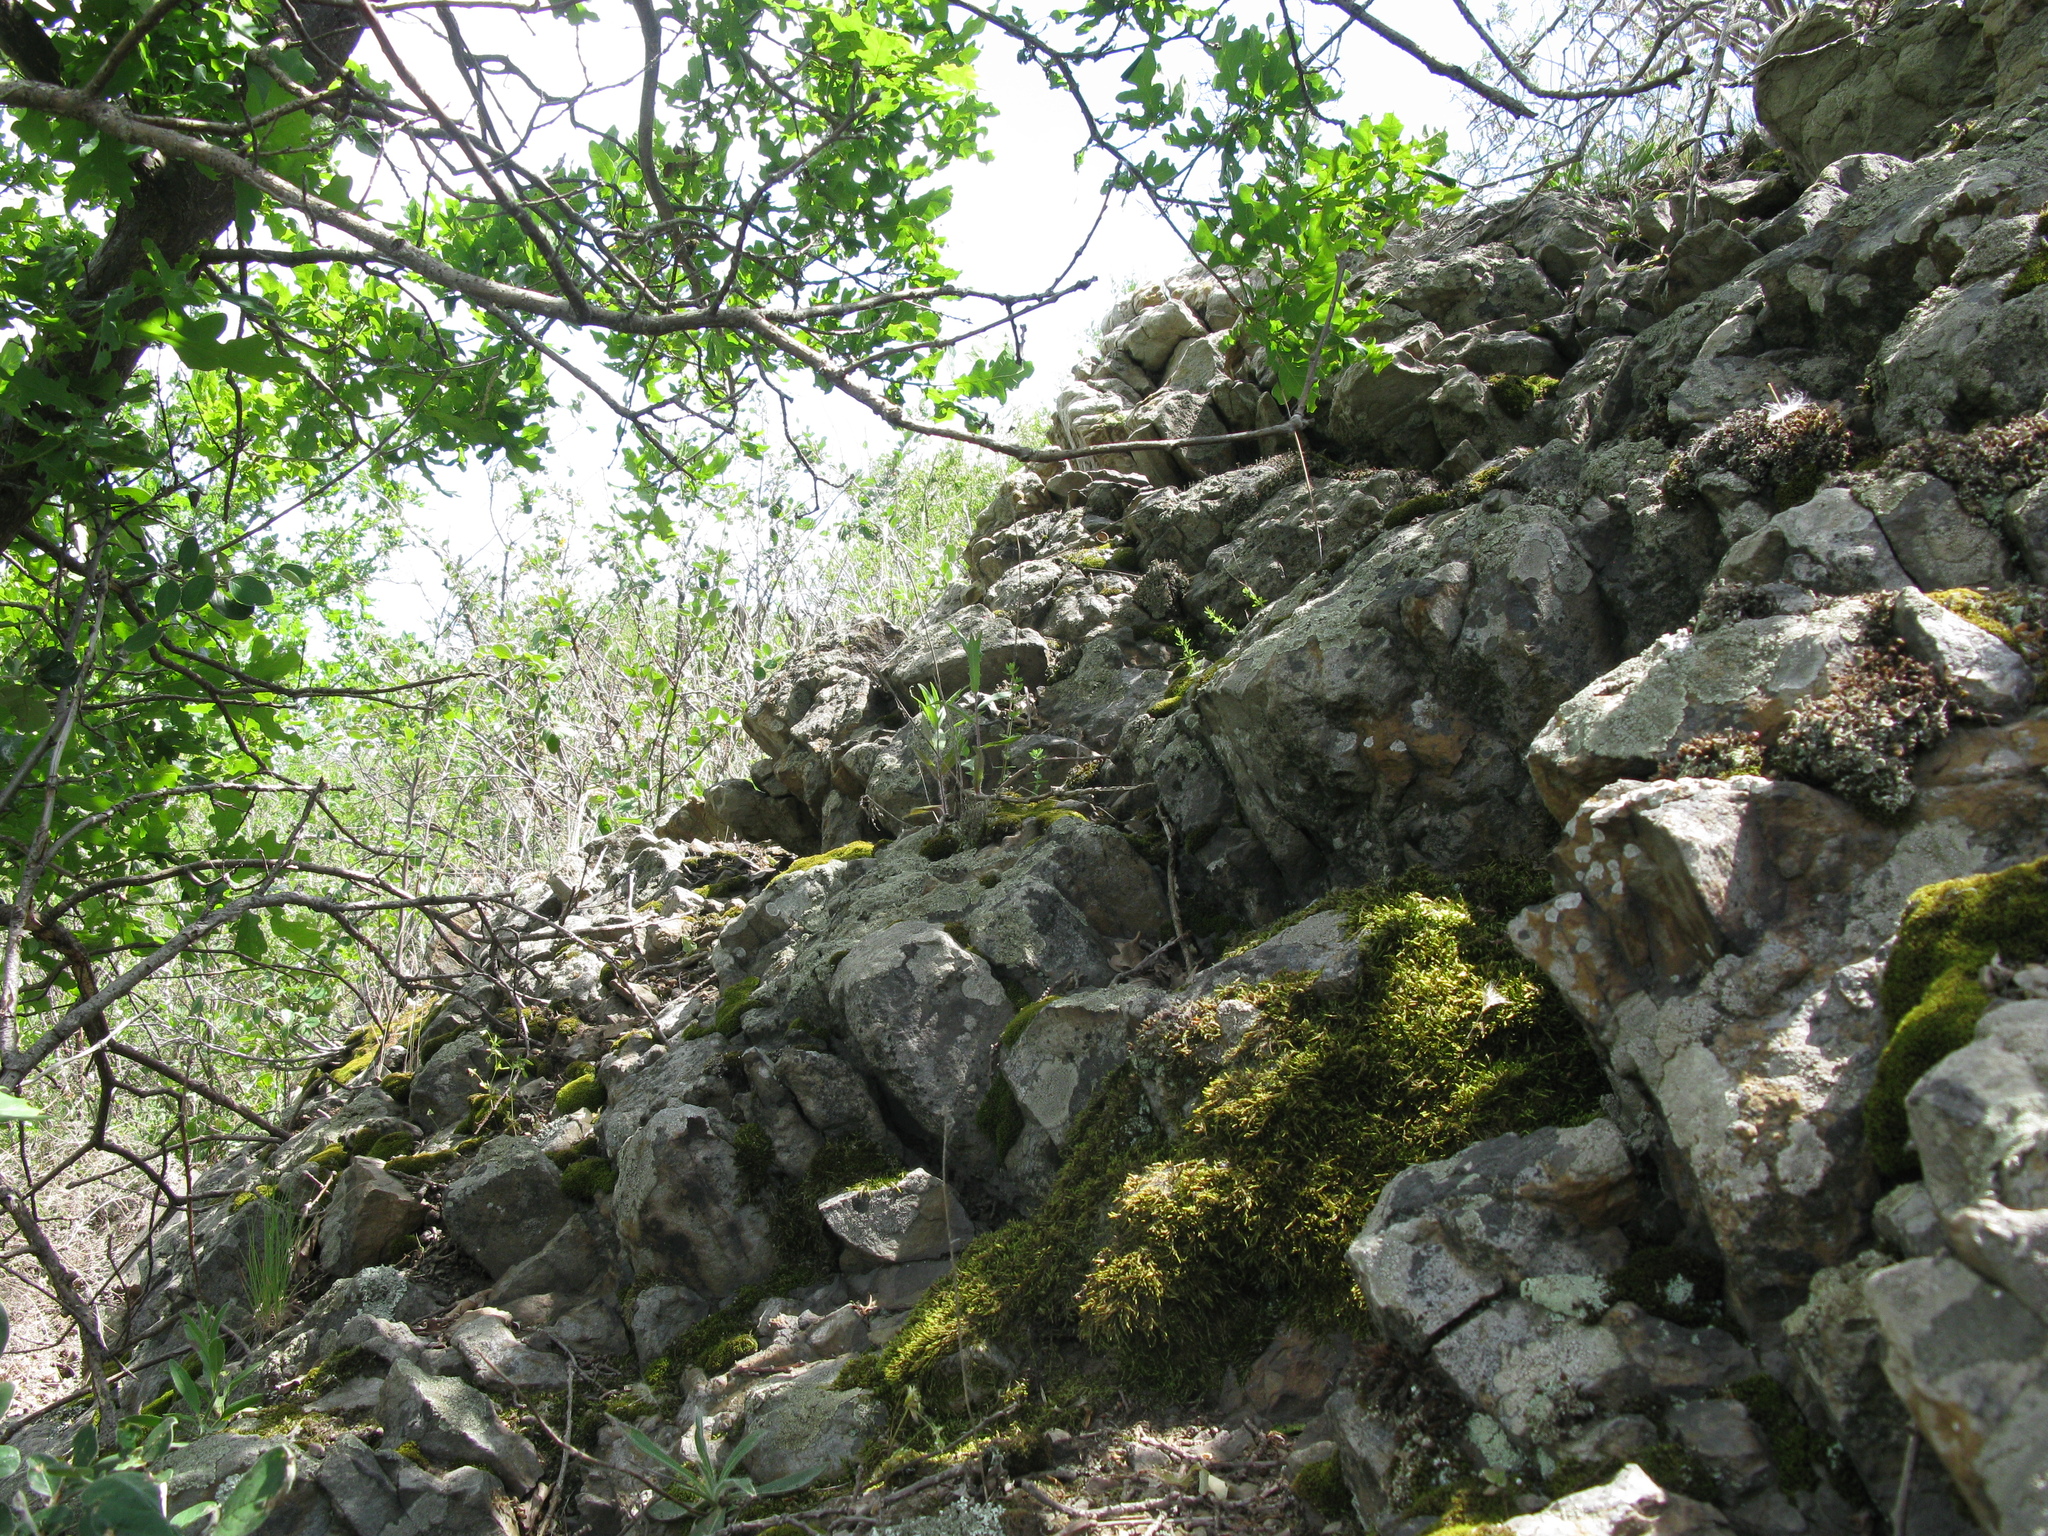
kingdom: Plantae
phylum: Tracheophyta
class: Magnoliopsida
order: Fagales
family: Fagaceae
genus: Quercus
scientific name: Quercus robur
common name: Pedunculate oak
